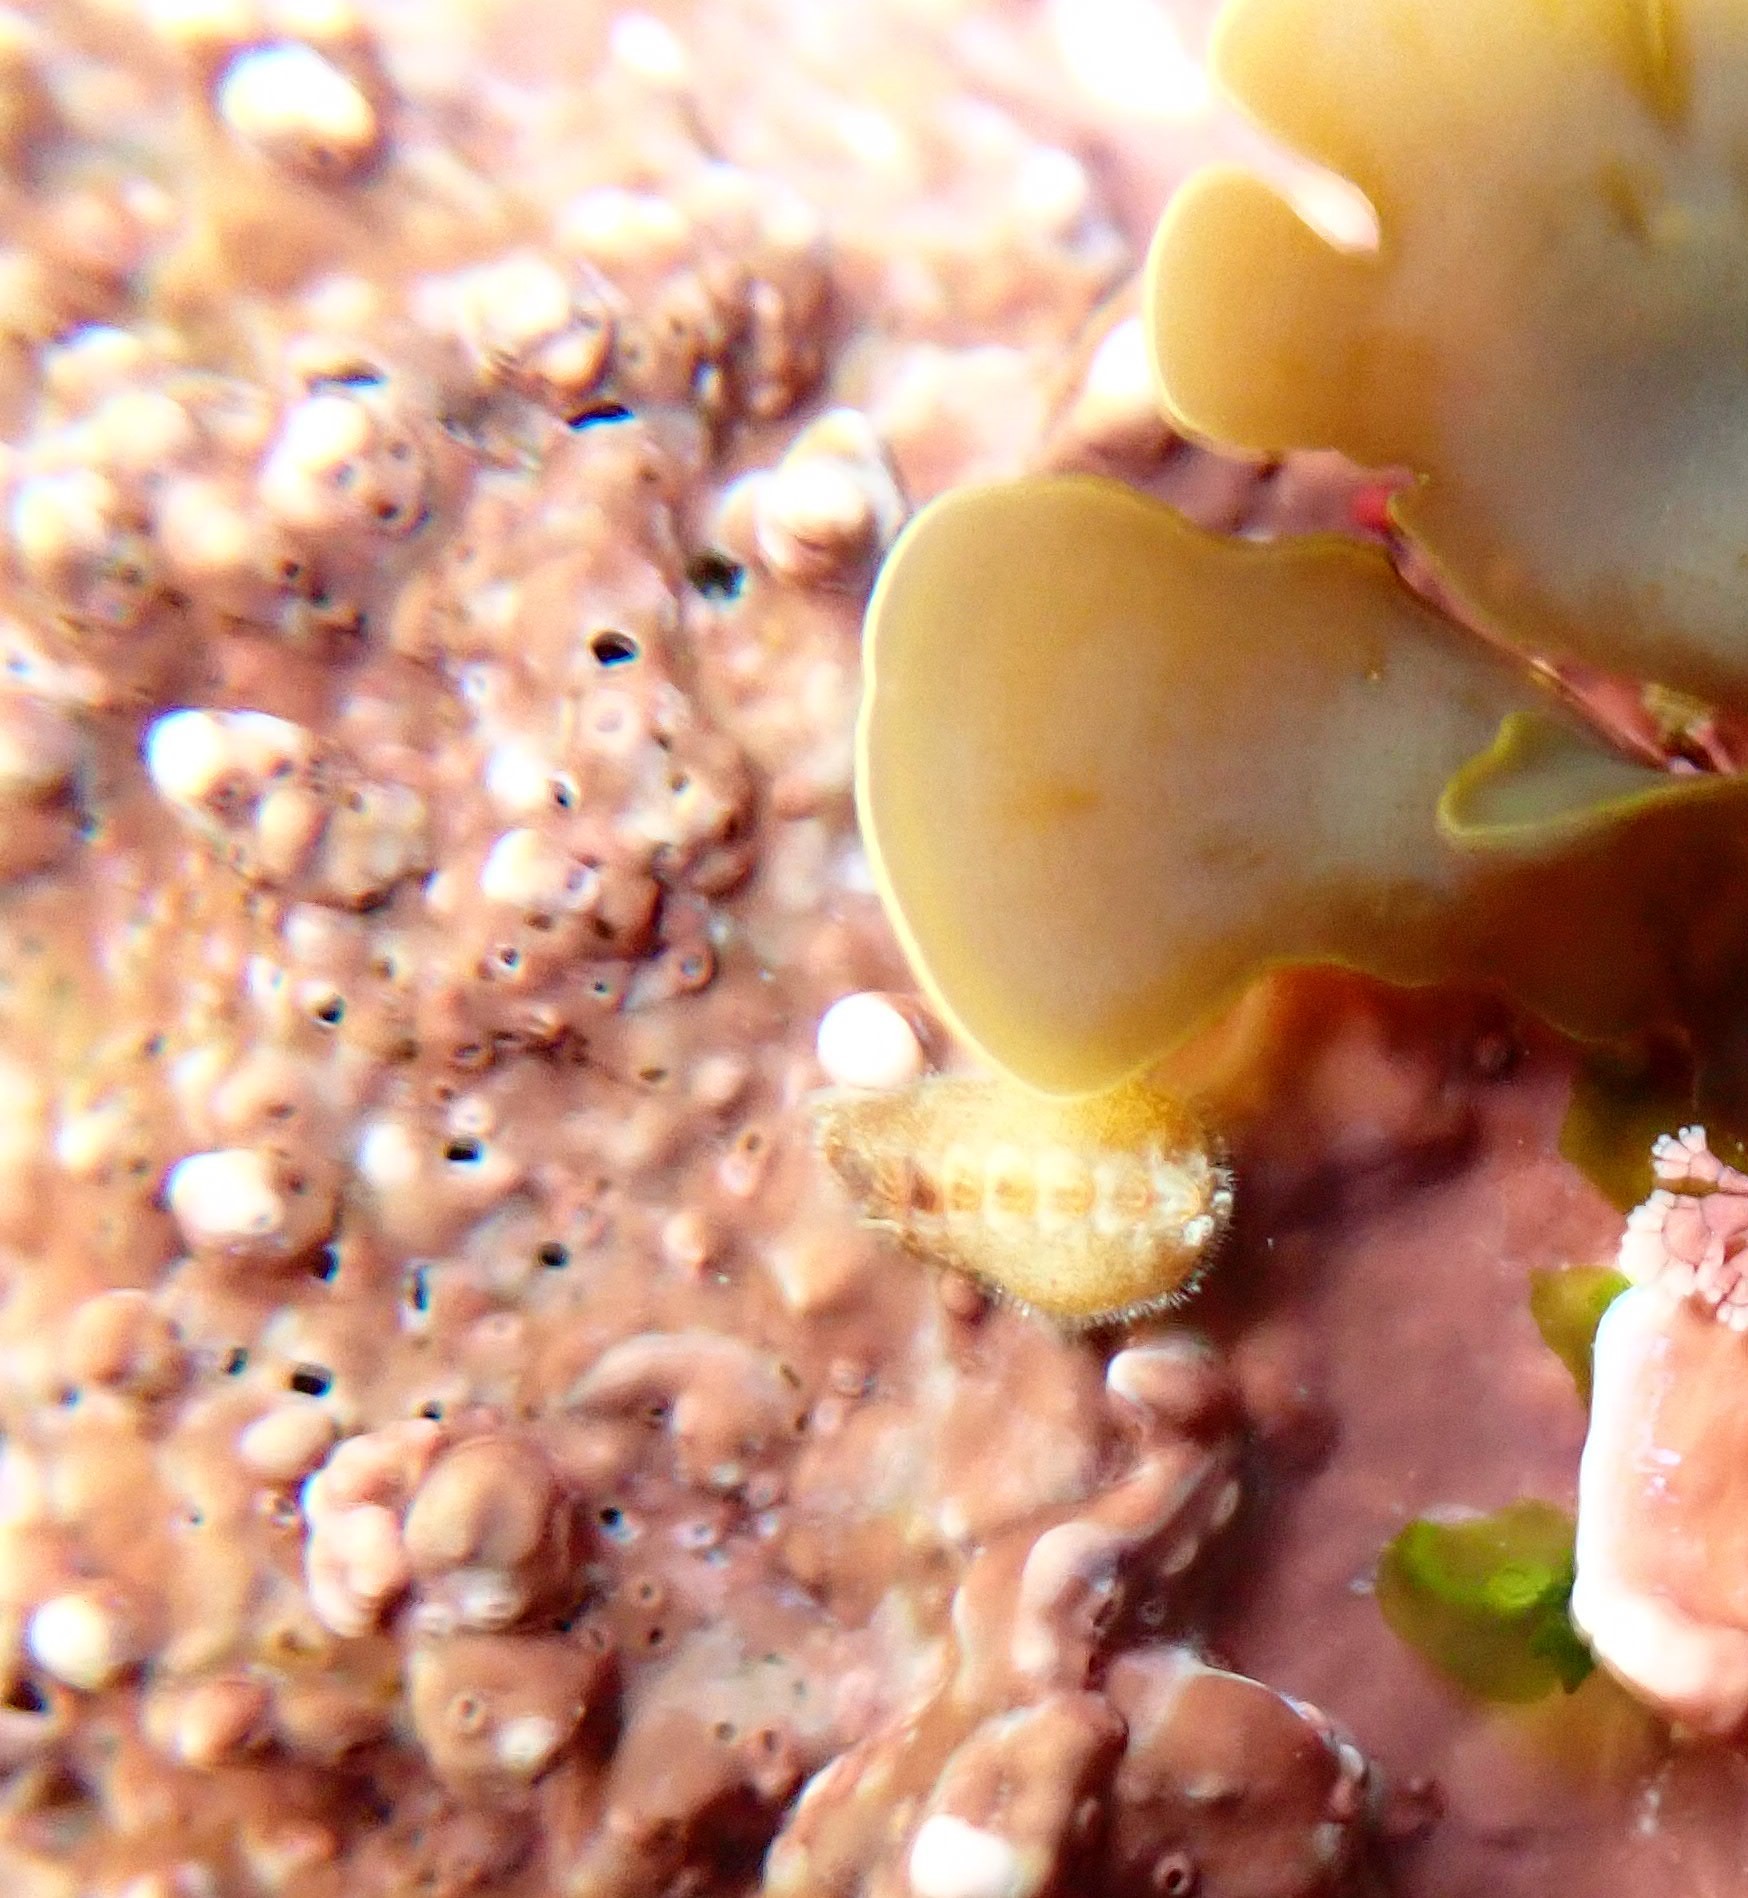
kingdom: Animalia
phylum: Mollusca
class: Polyplacophora
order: Chitonida
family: Acanthochitonidae
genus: Notoplax
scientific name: Notoplax
